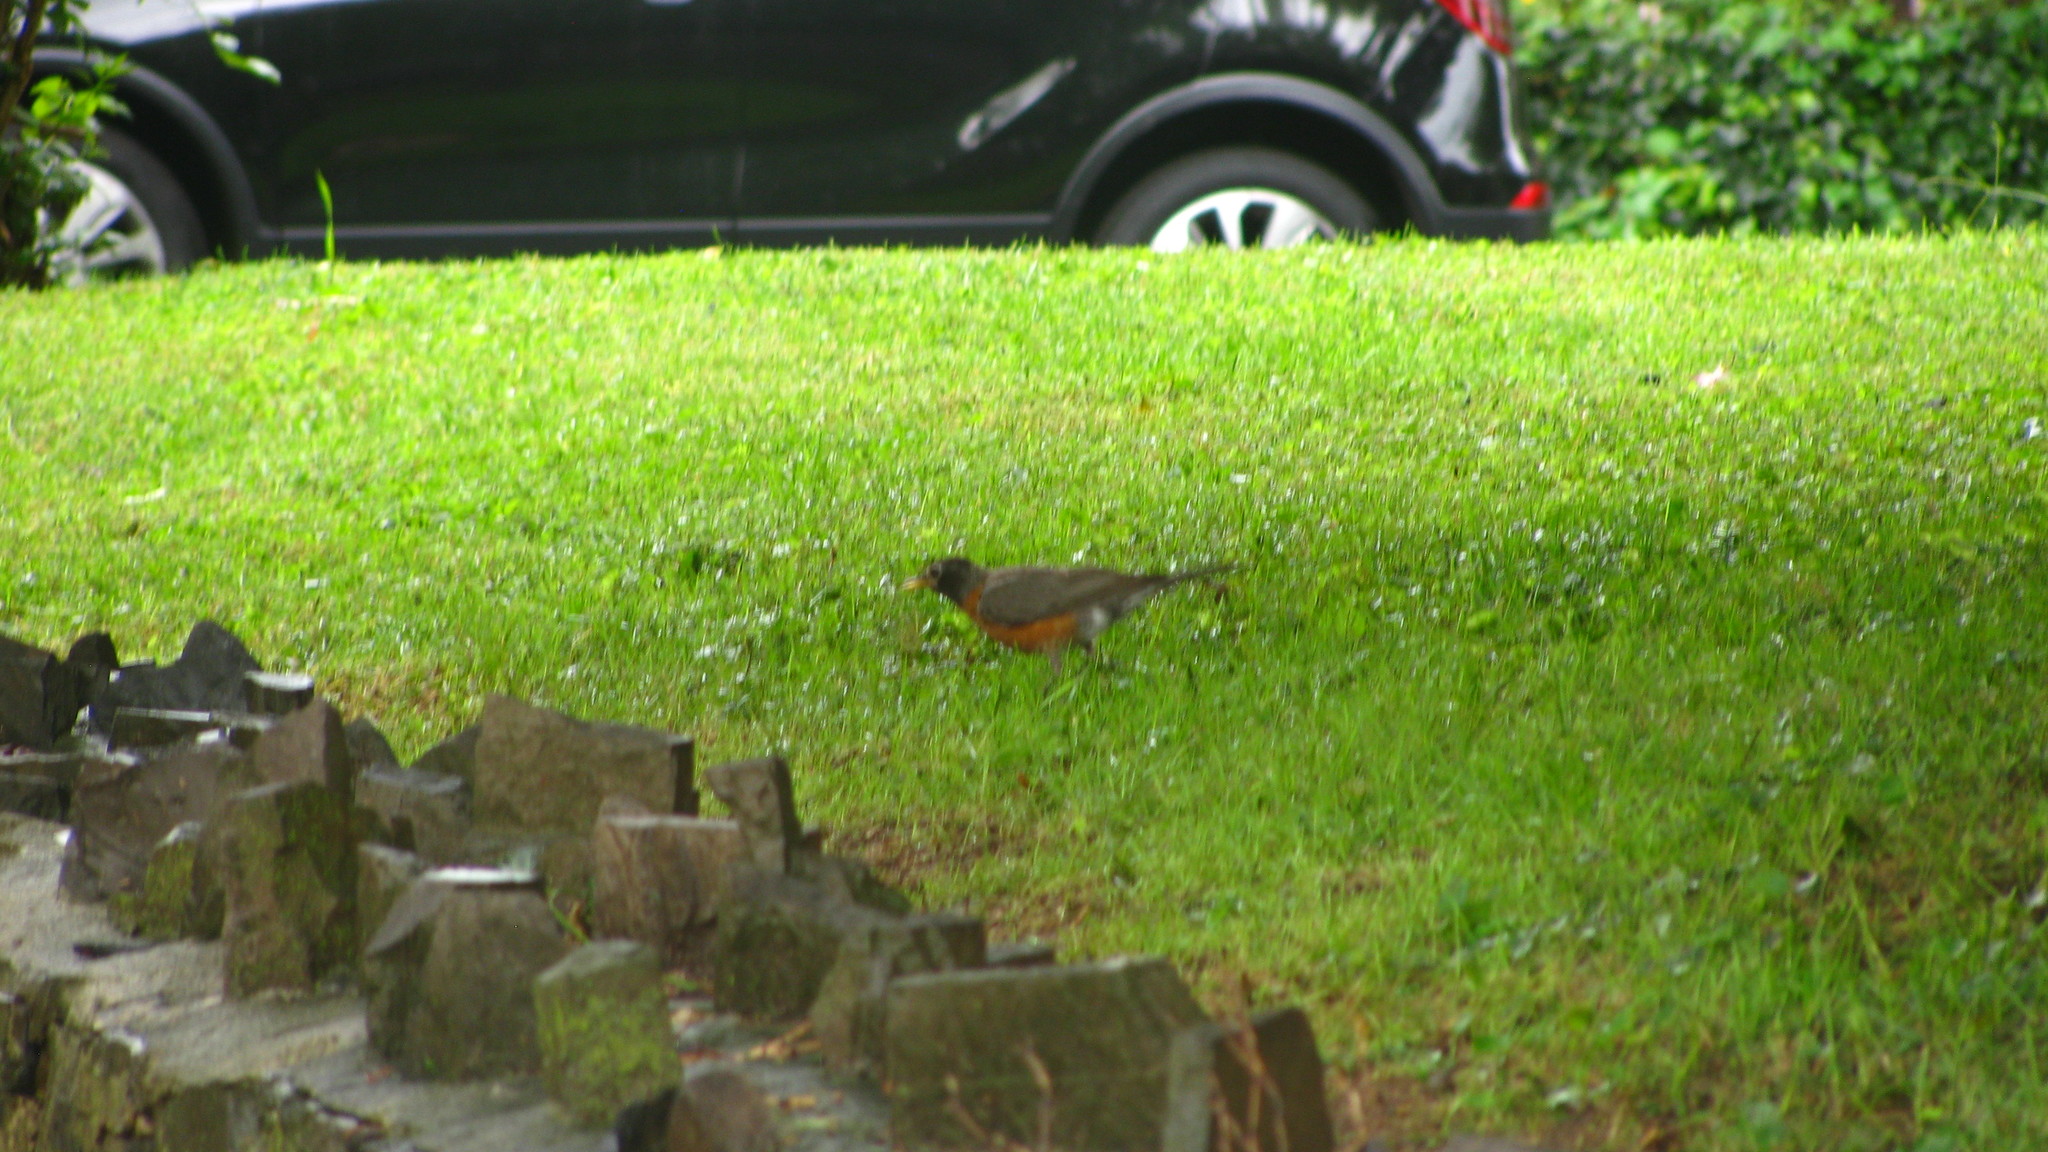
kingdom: Animalia
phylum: Chordata
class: Aves
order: Passeriformes
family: Turdidae
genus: Turdus
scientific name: Turdus migratorius
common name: American robin
